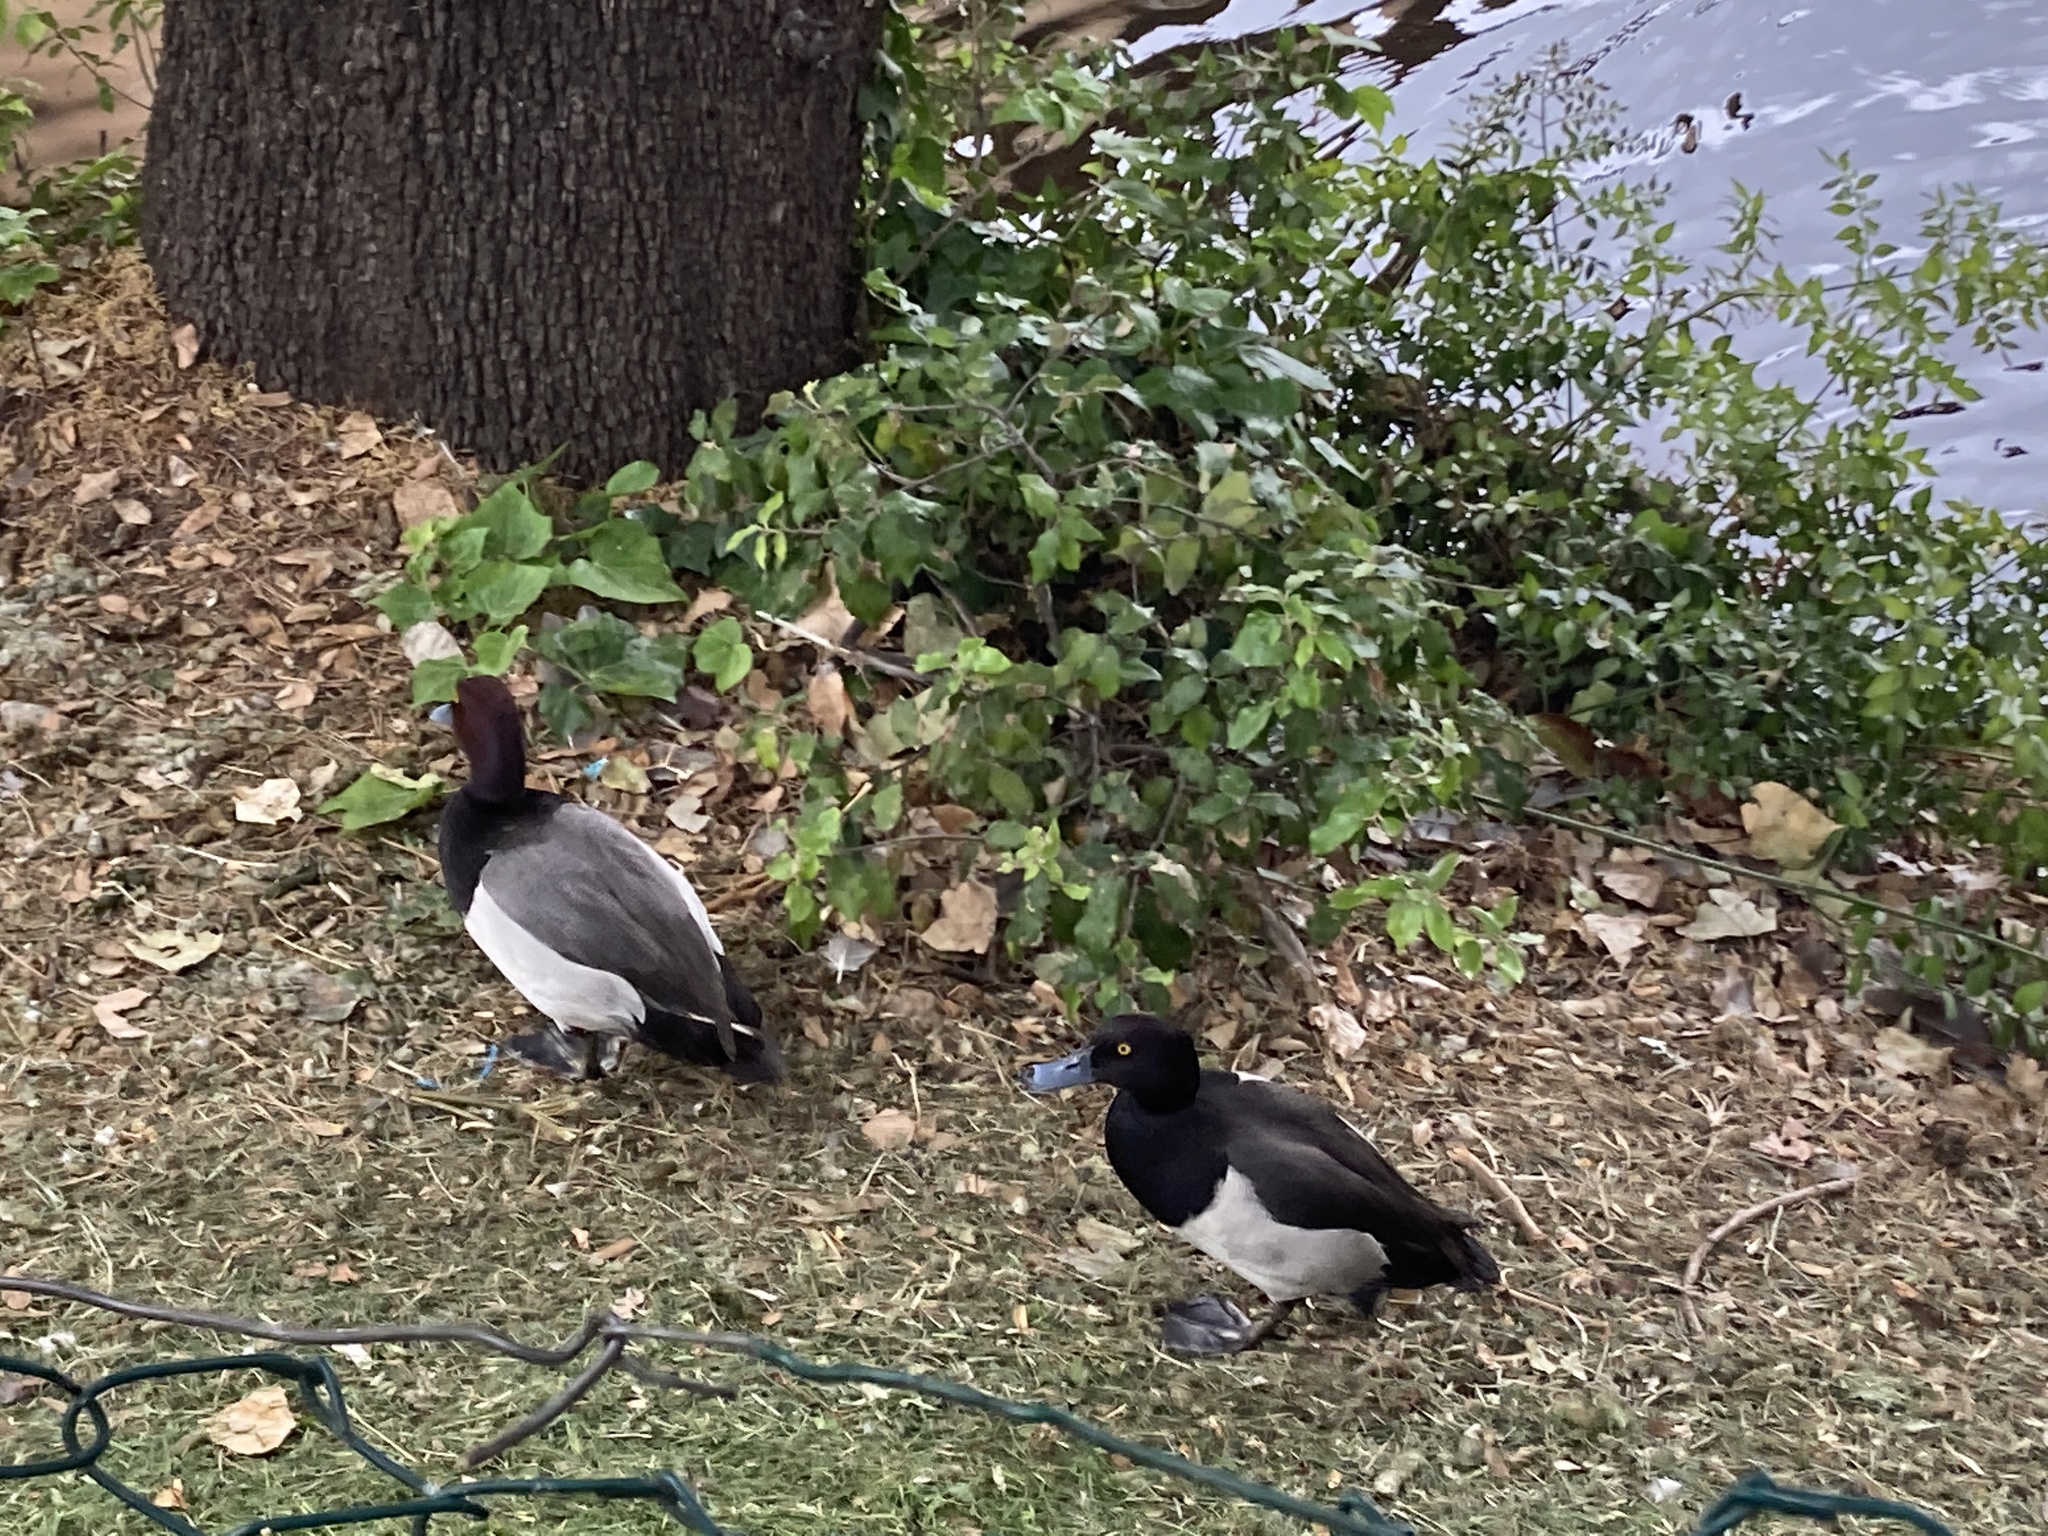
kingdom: Animalia
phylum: Chordata
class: Aves
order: Anseriformes
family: Anatidae
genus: Aythya
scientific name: Aythya fuligula
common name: Tufted duck
